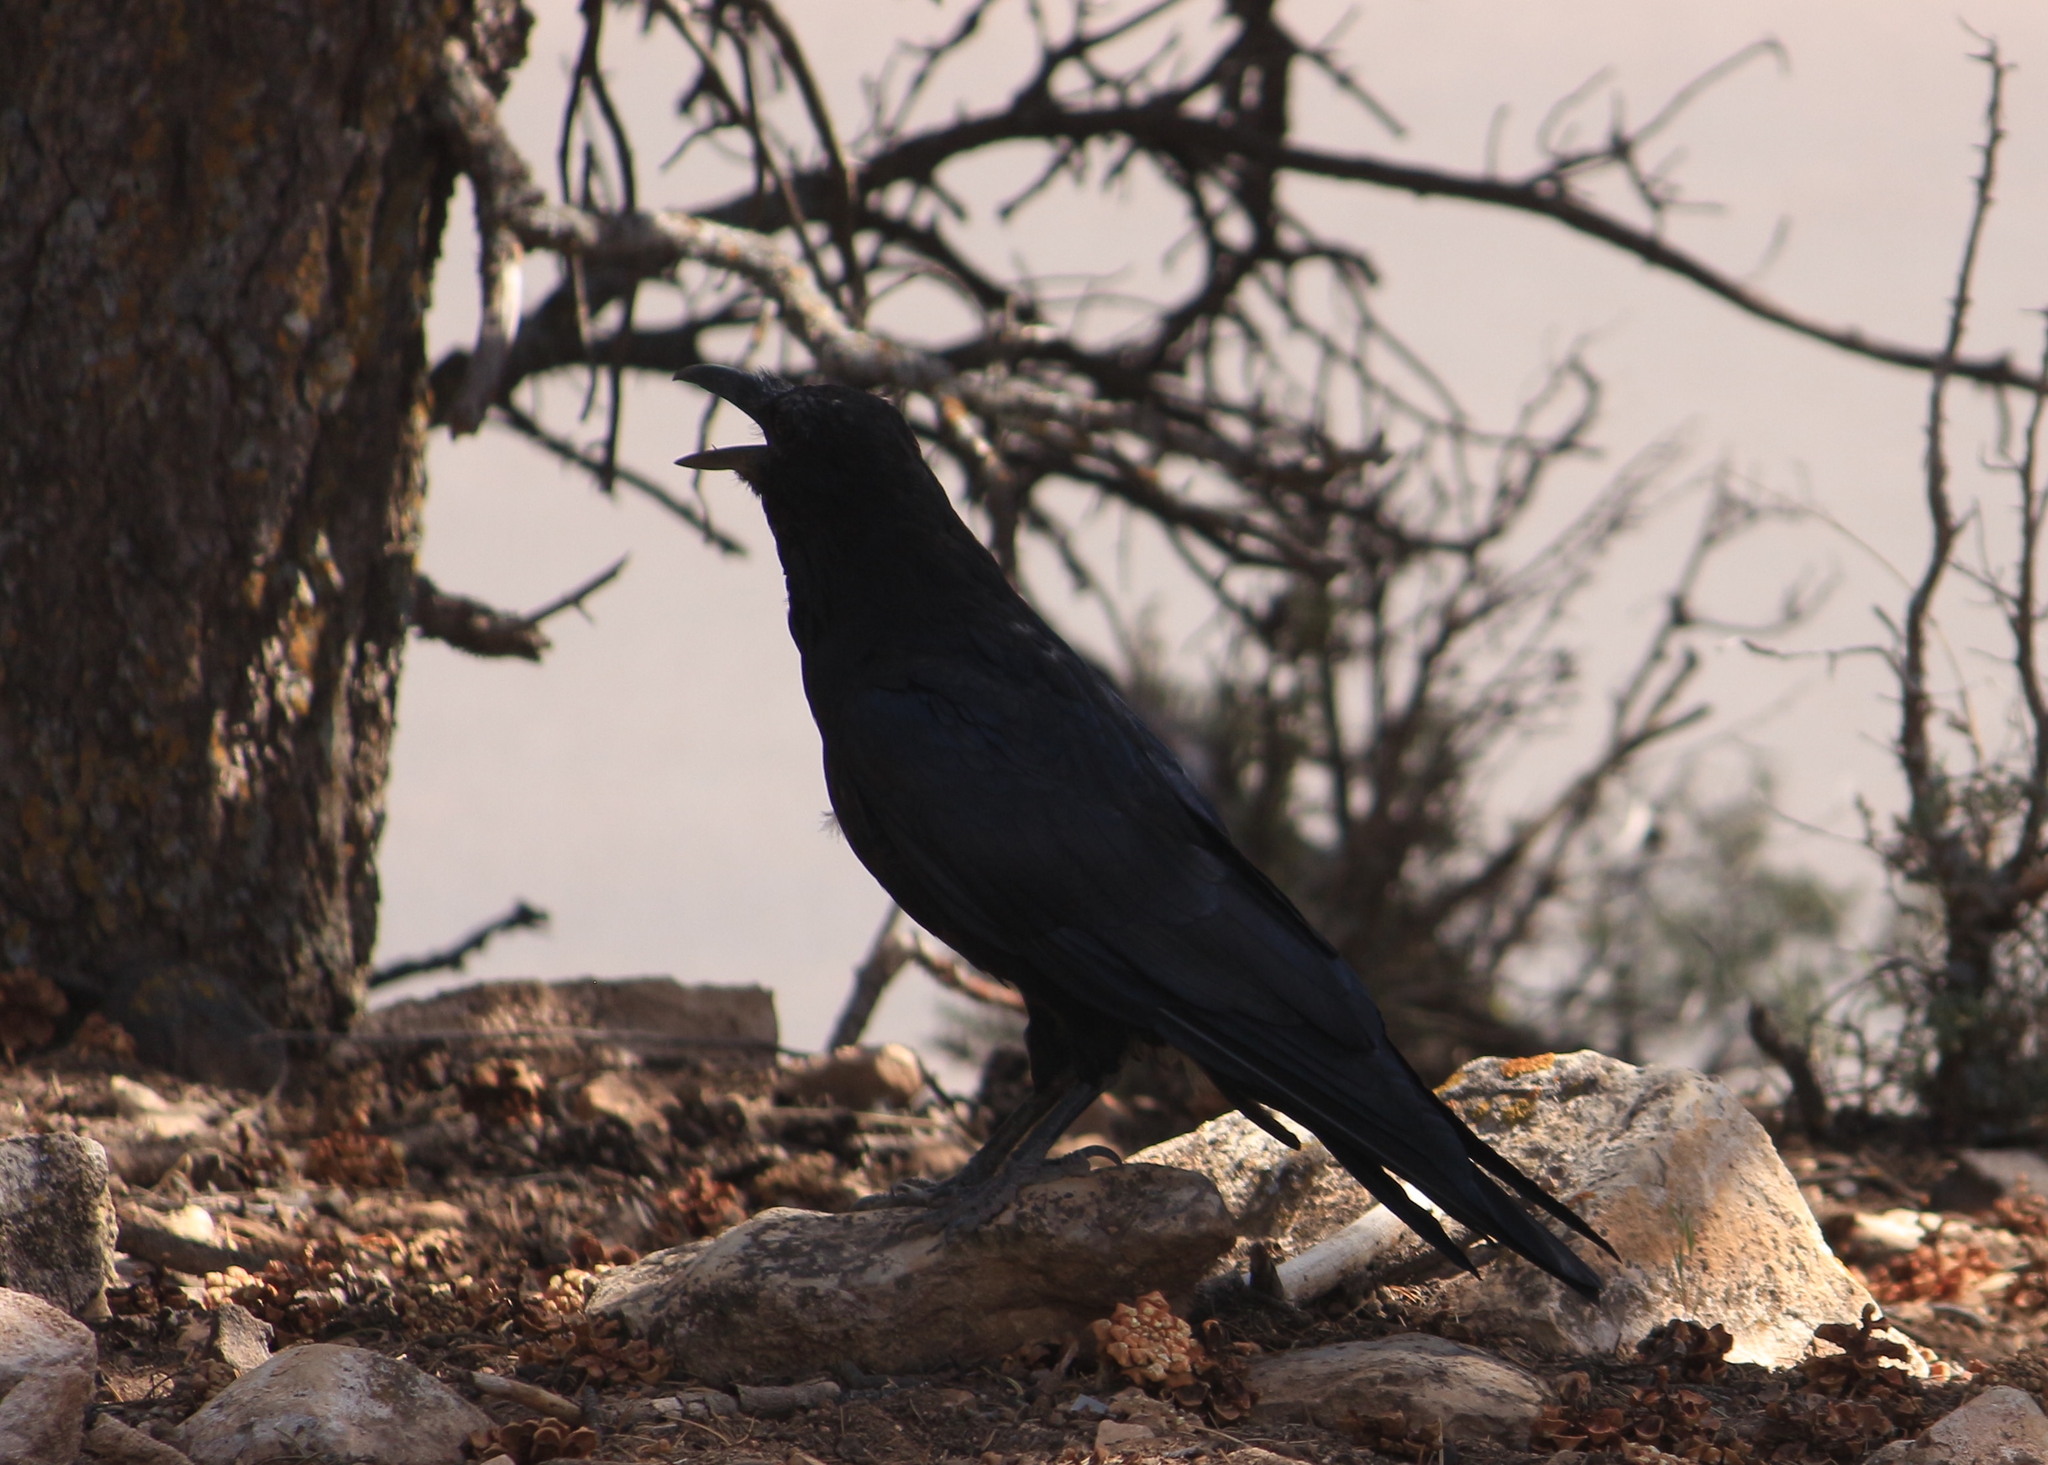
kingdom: Animalia
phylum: Chordata
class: Aves
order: Passeriformes
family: Corvidae
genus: Corvus
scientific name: Corvus corax
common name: Common raven
